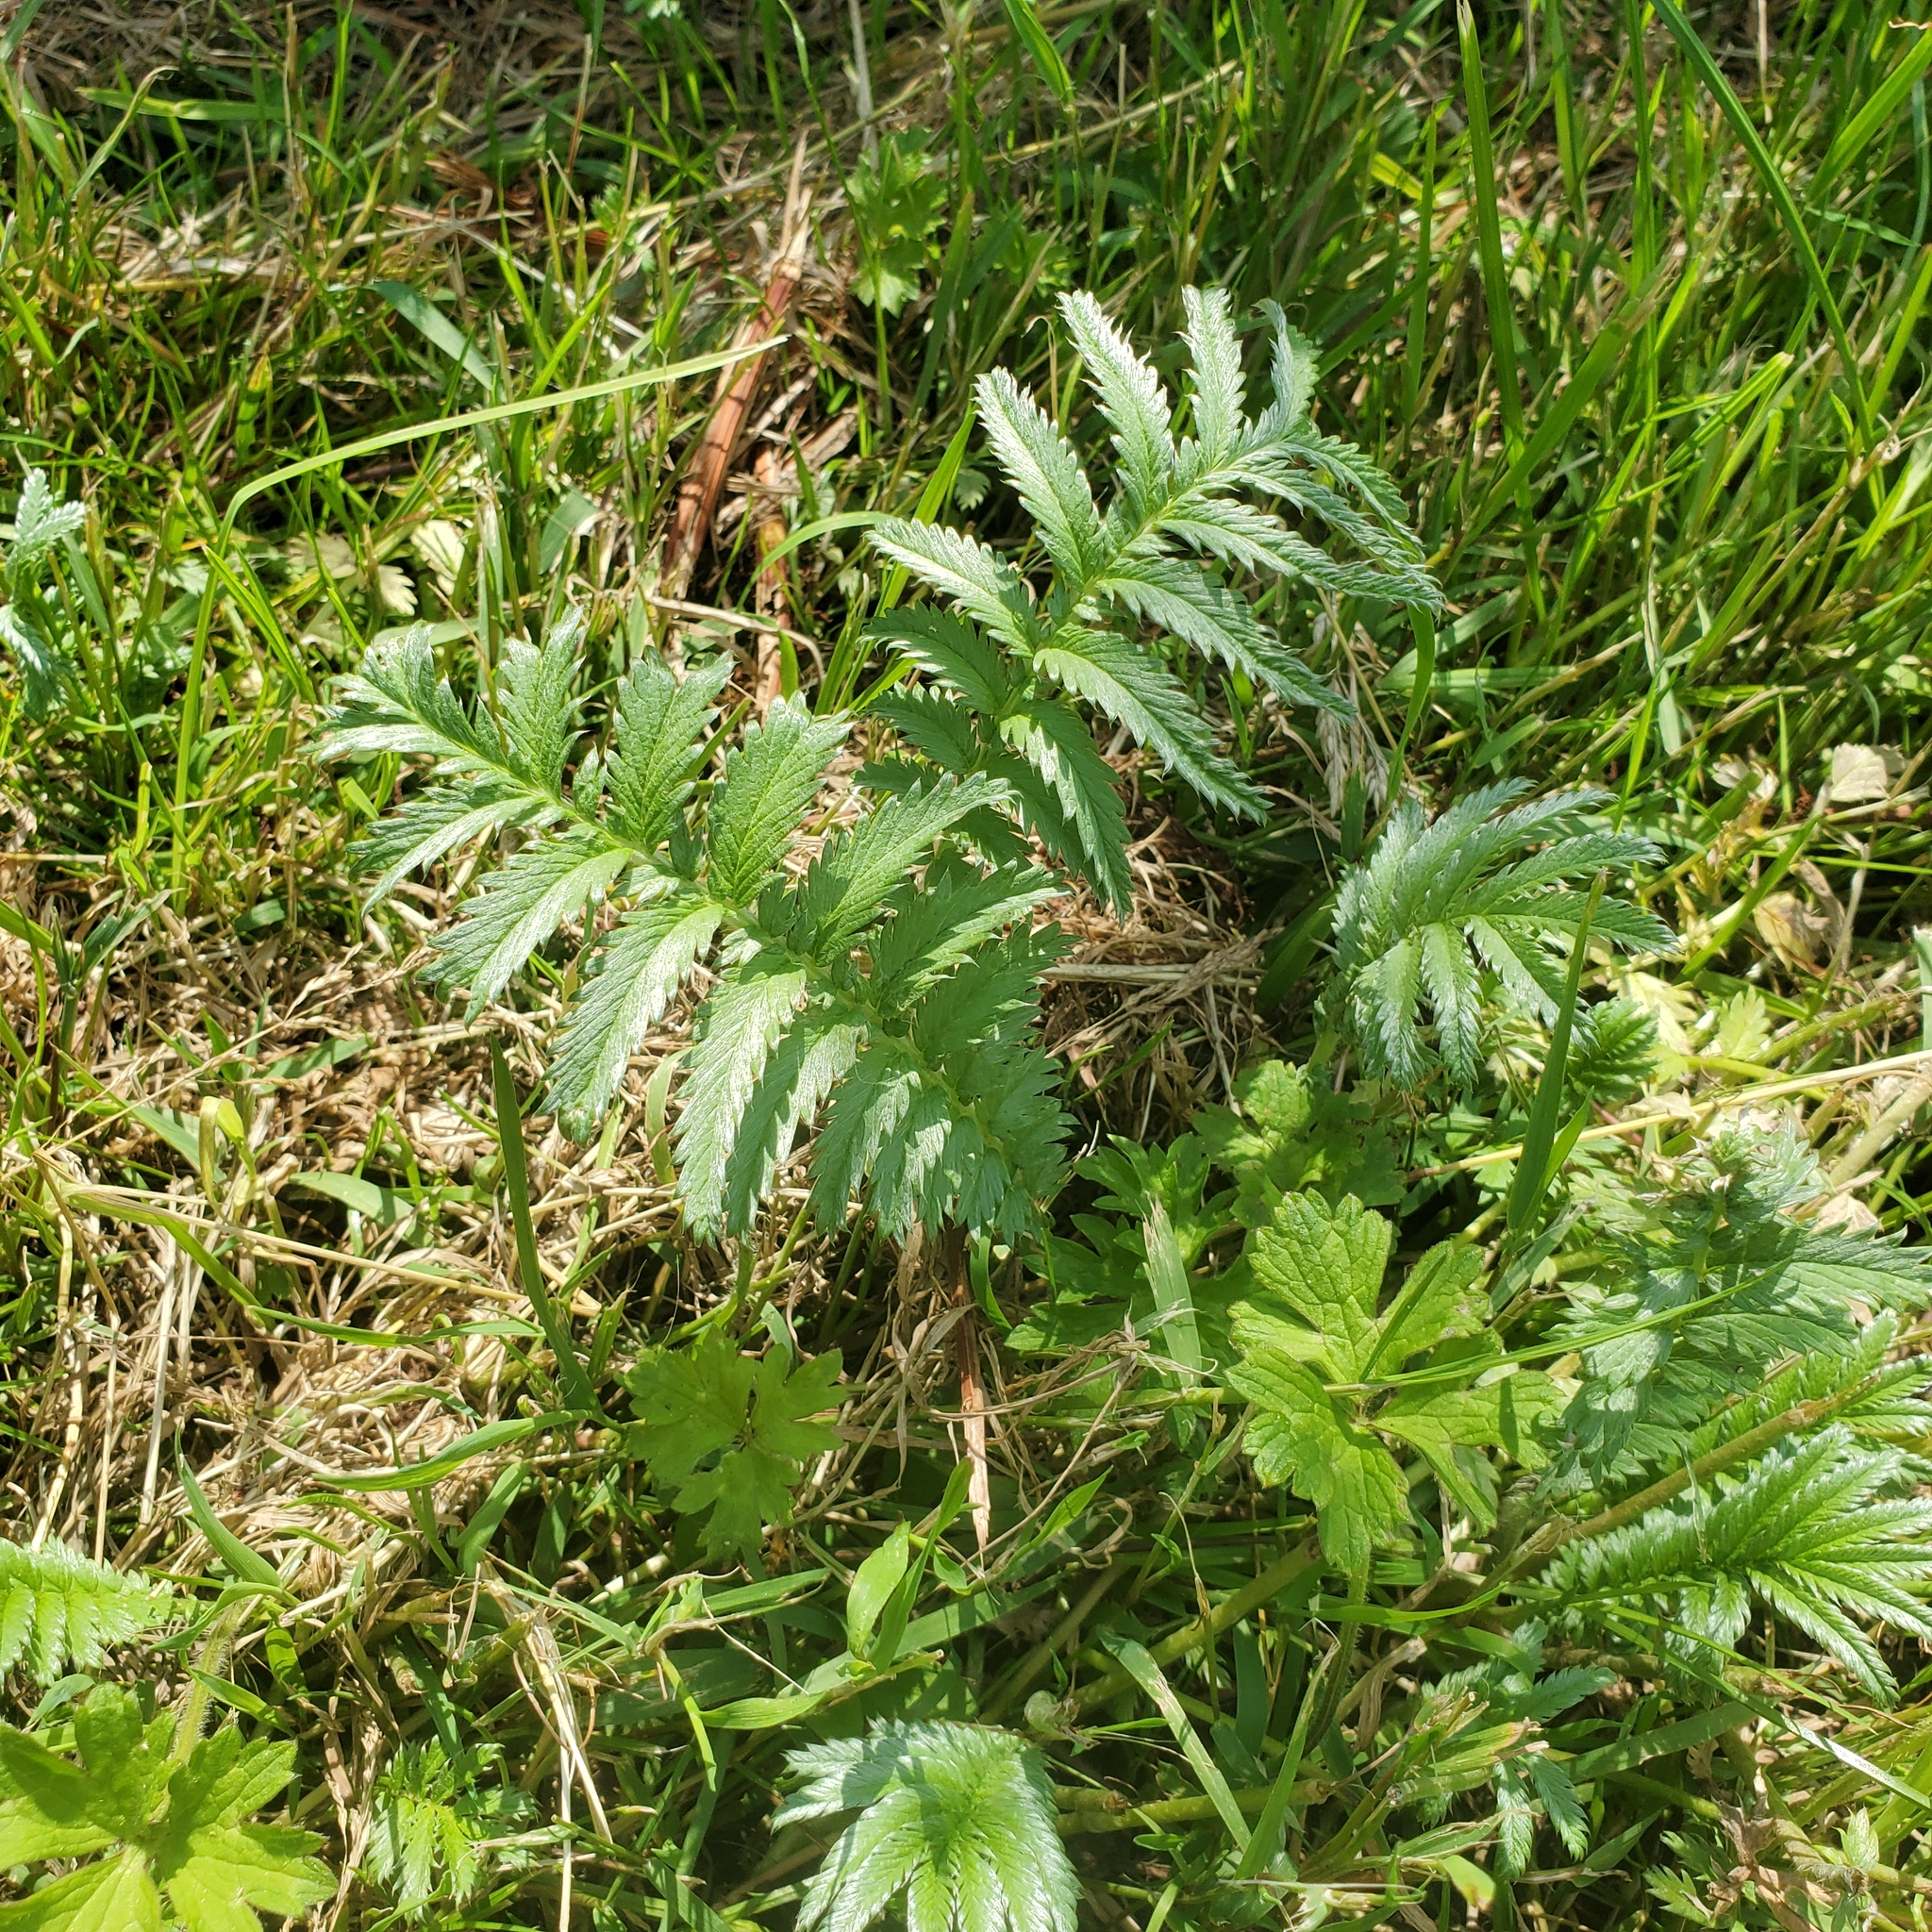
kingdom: Plantae
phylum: Tracheophyta
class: Magnoliopsida
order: Rosales
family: Rosaceae
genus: Argentina
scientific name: Argentina anserina
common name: Common silverweed
